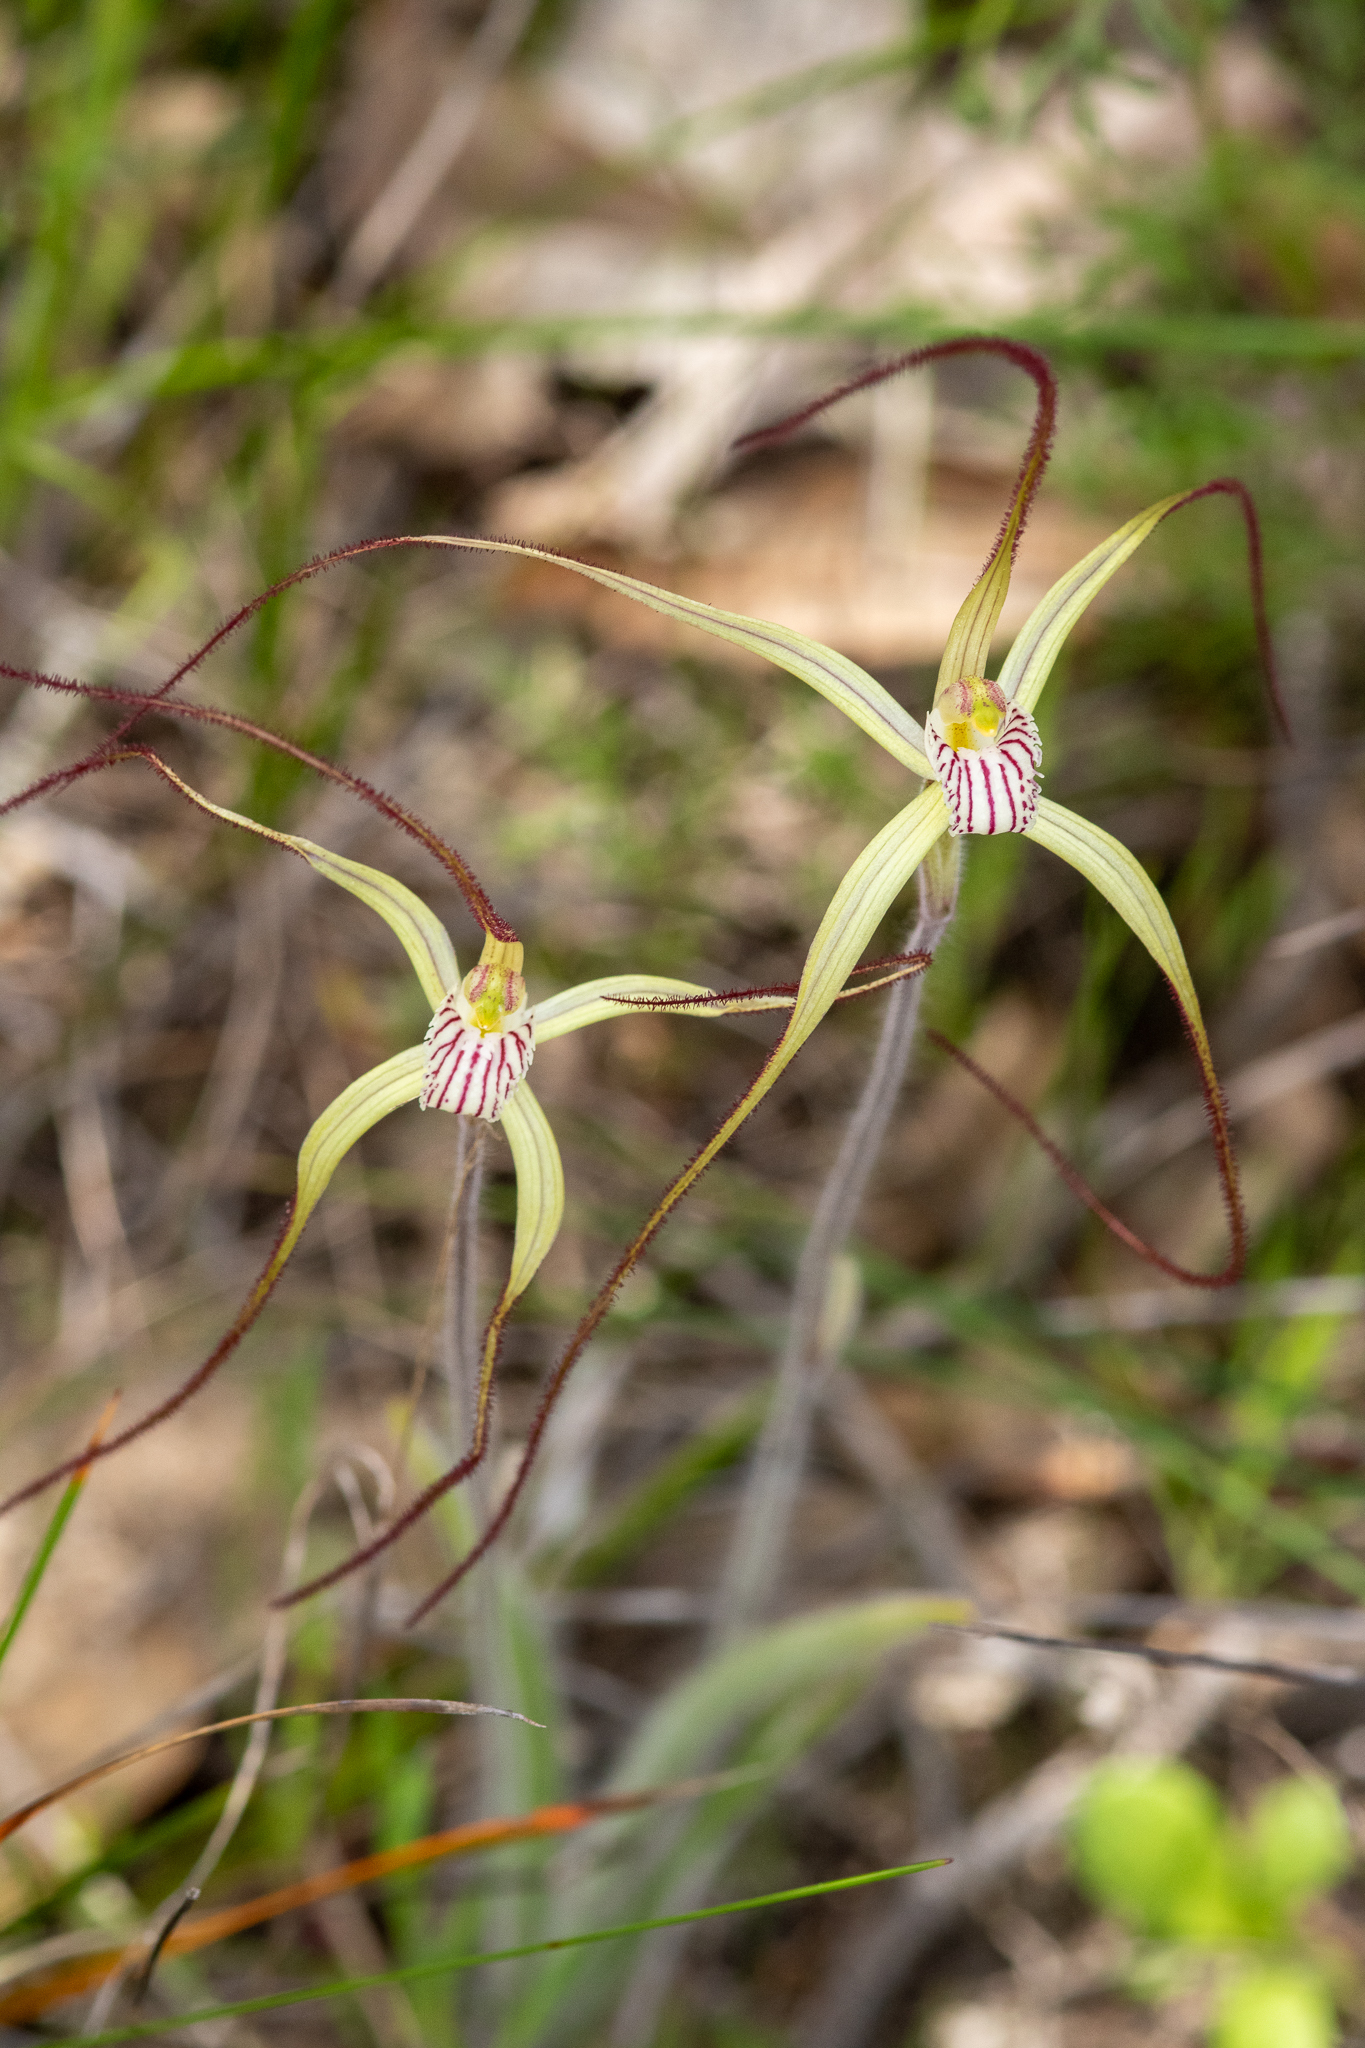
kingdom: Plantae
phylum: Tracheophyta
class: Liliopsida
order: Asparagales
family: Orchidaceae
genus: Caladenia
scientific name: Caladenia straminichila
